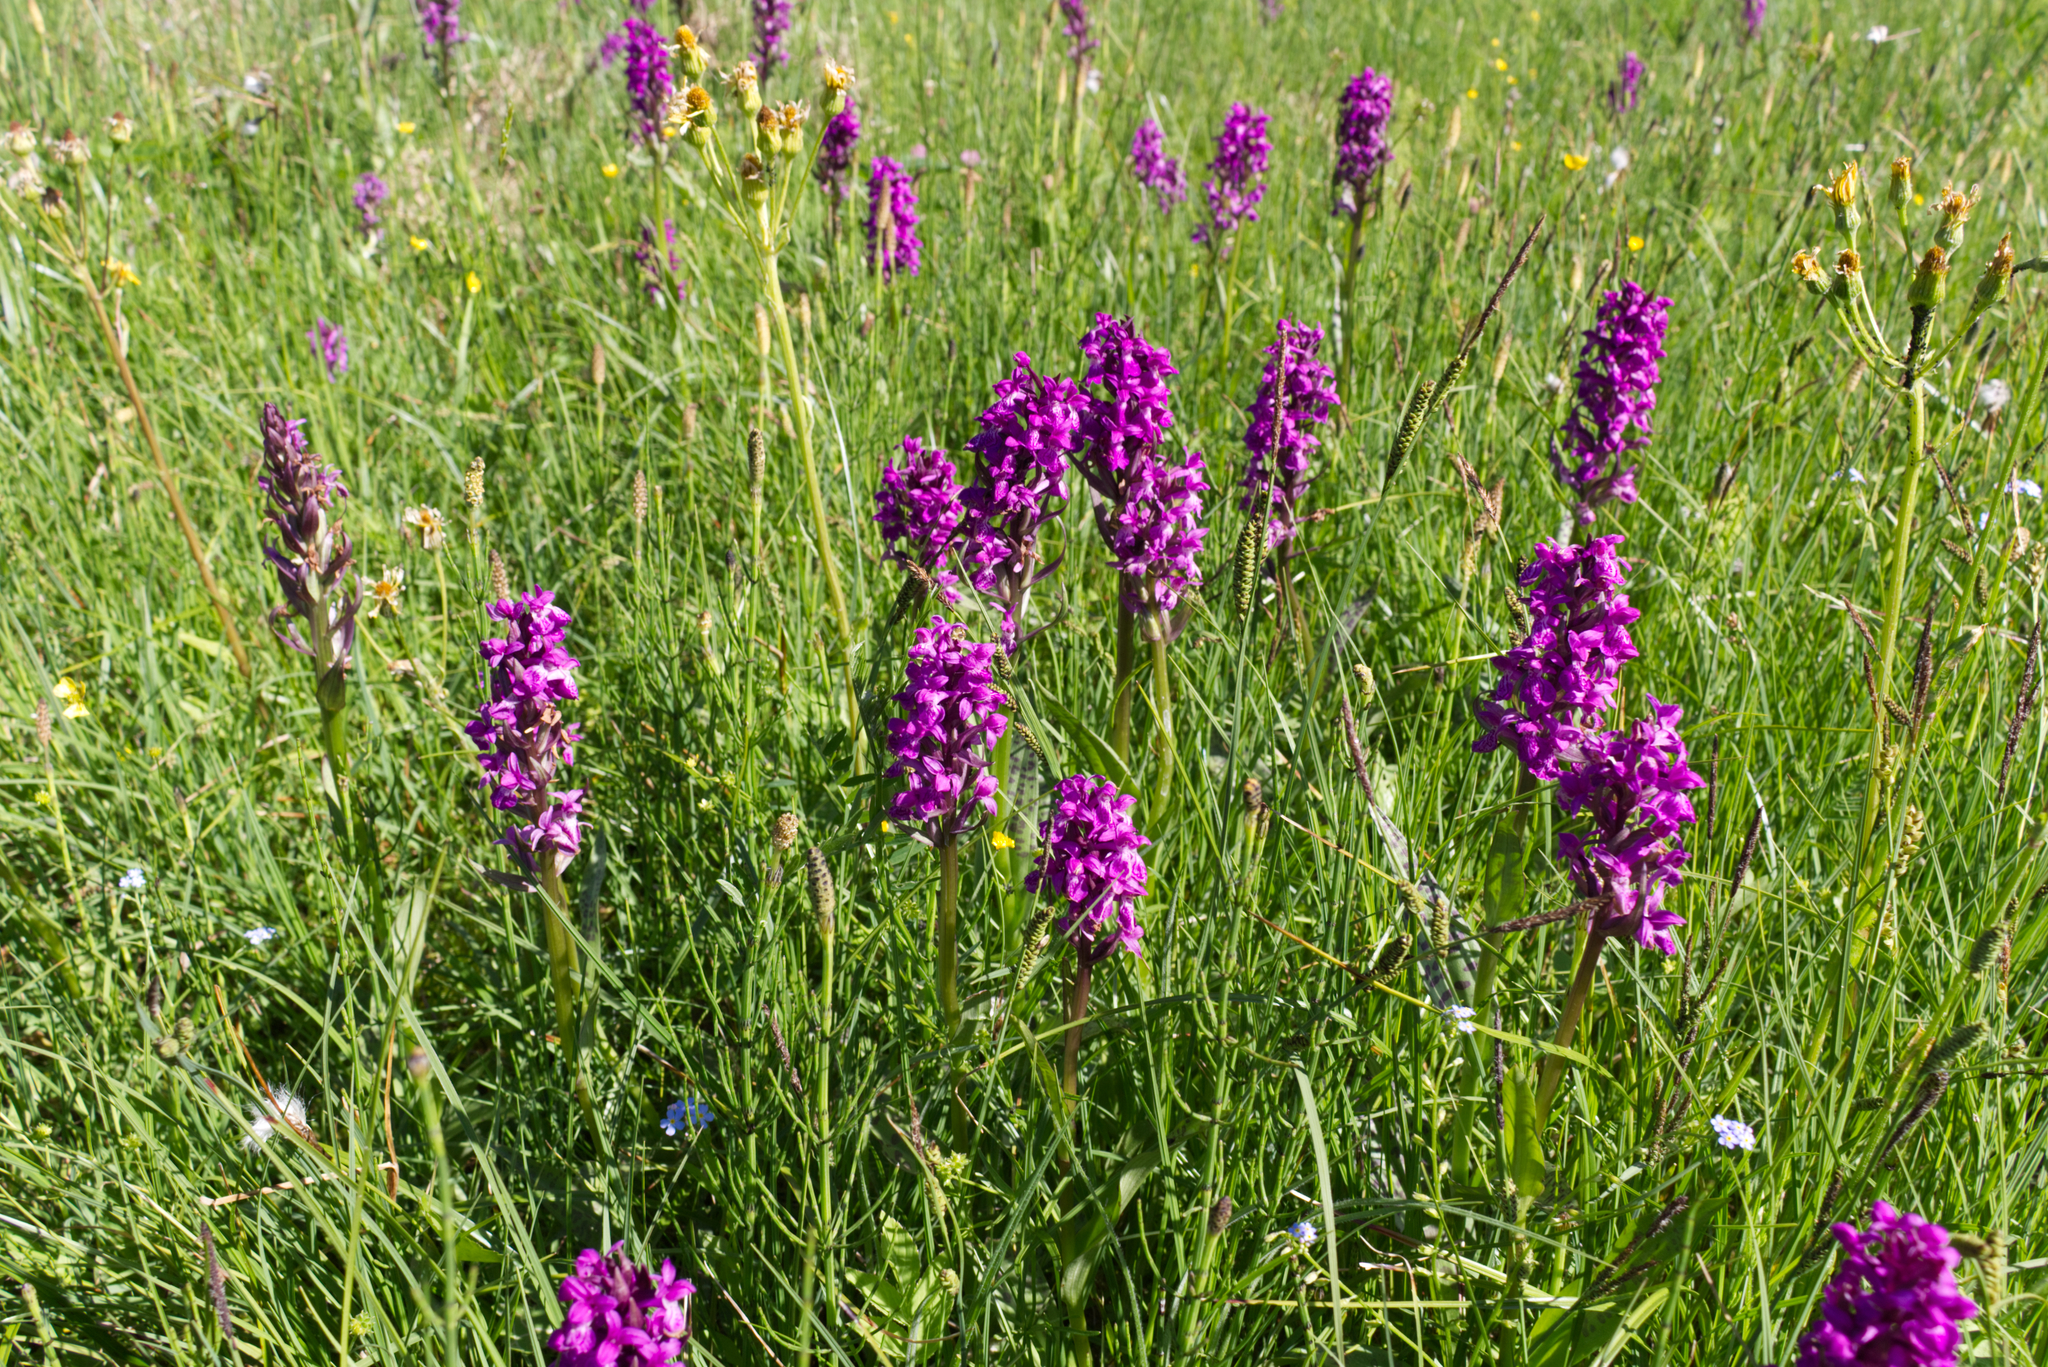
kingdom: Plantae
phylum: Tracheophyta
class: Liliopsida
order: Asparagales
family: Orchidaceae
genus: Dactylorhiza
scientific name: Dactylorhiza majalis
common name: Marsh orchid
